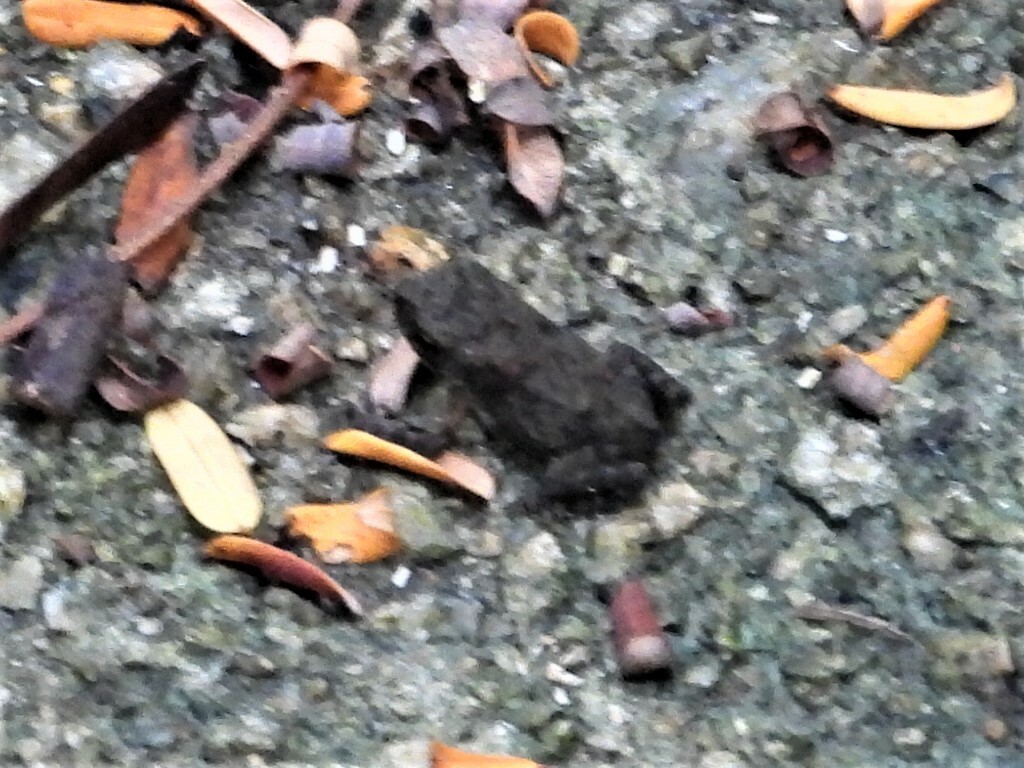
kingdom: Animalia
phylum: Chordata
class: Amphibia
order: Anura
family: Bufonidae
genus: Duttaphrynus
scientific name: Duttaphrynus melanostictus
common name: Common sunda toad
